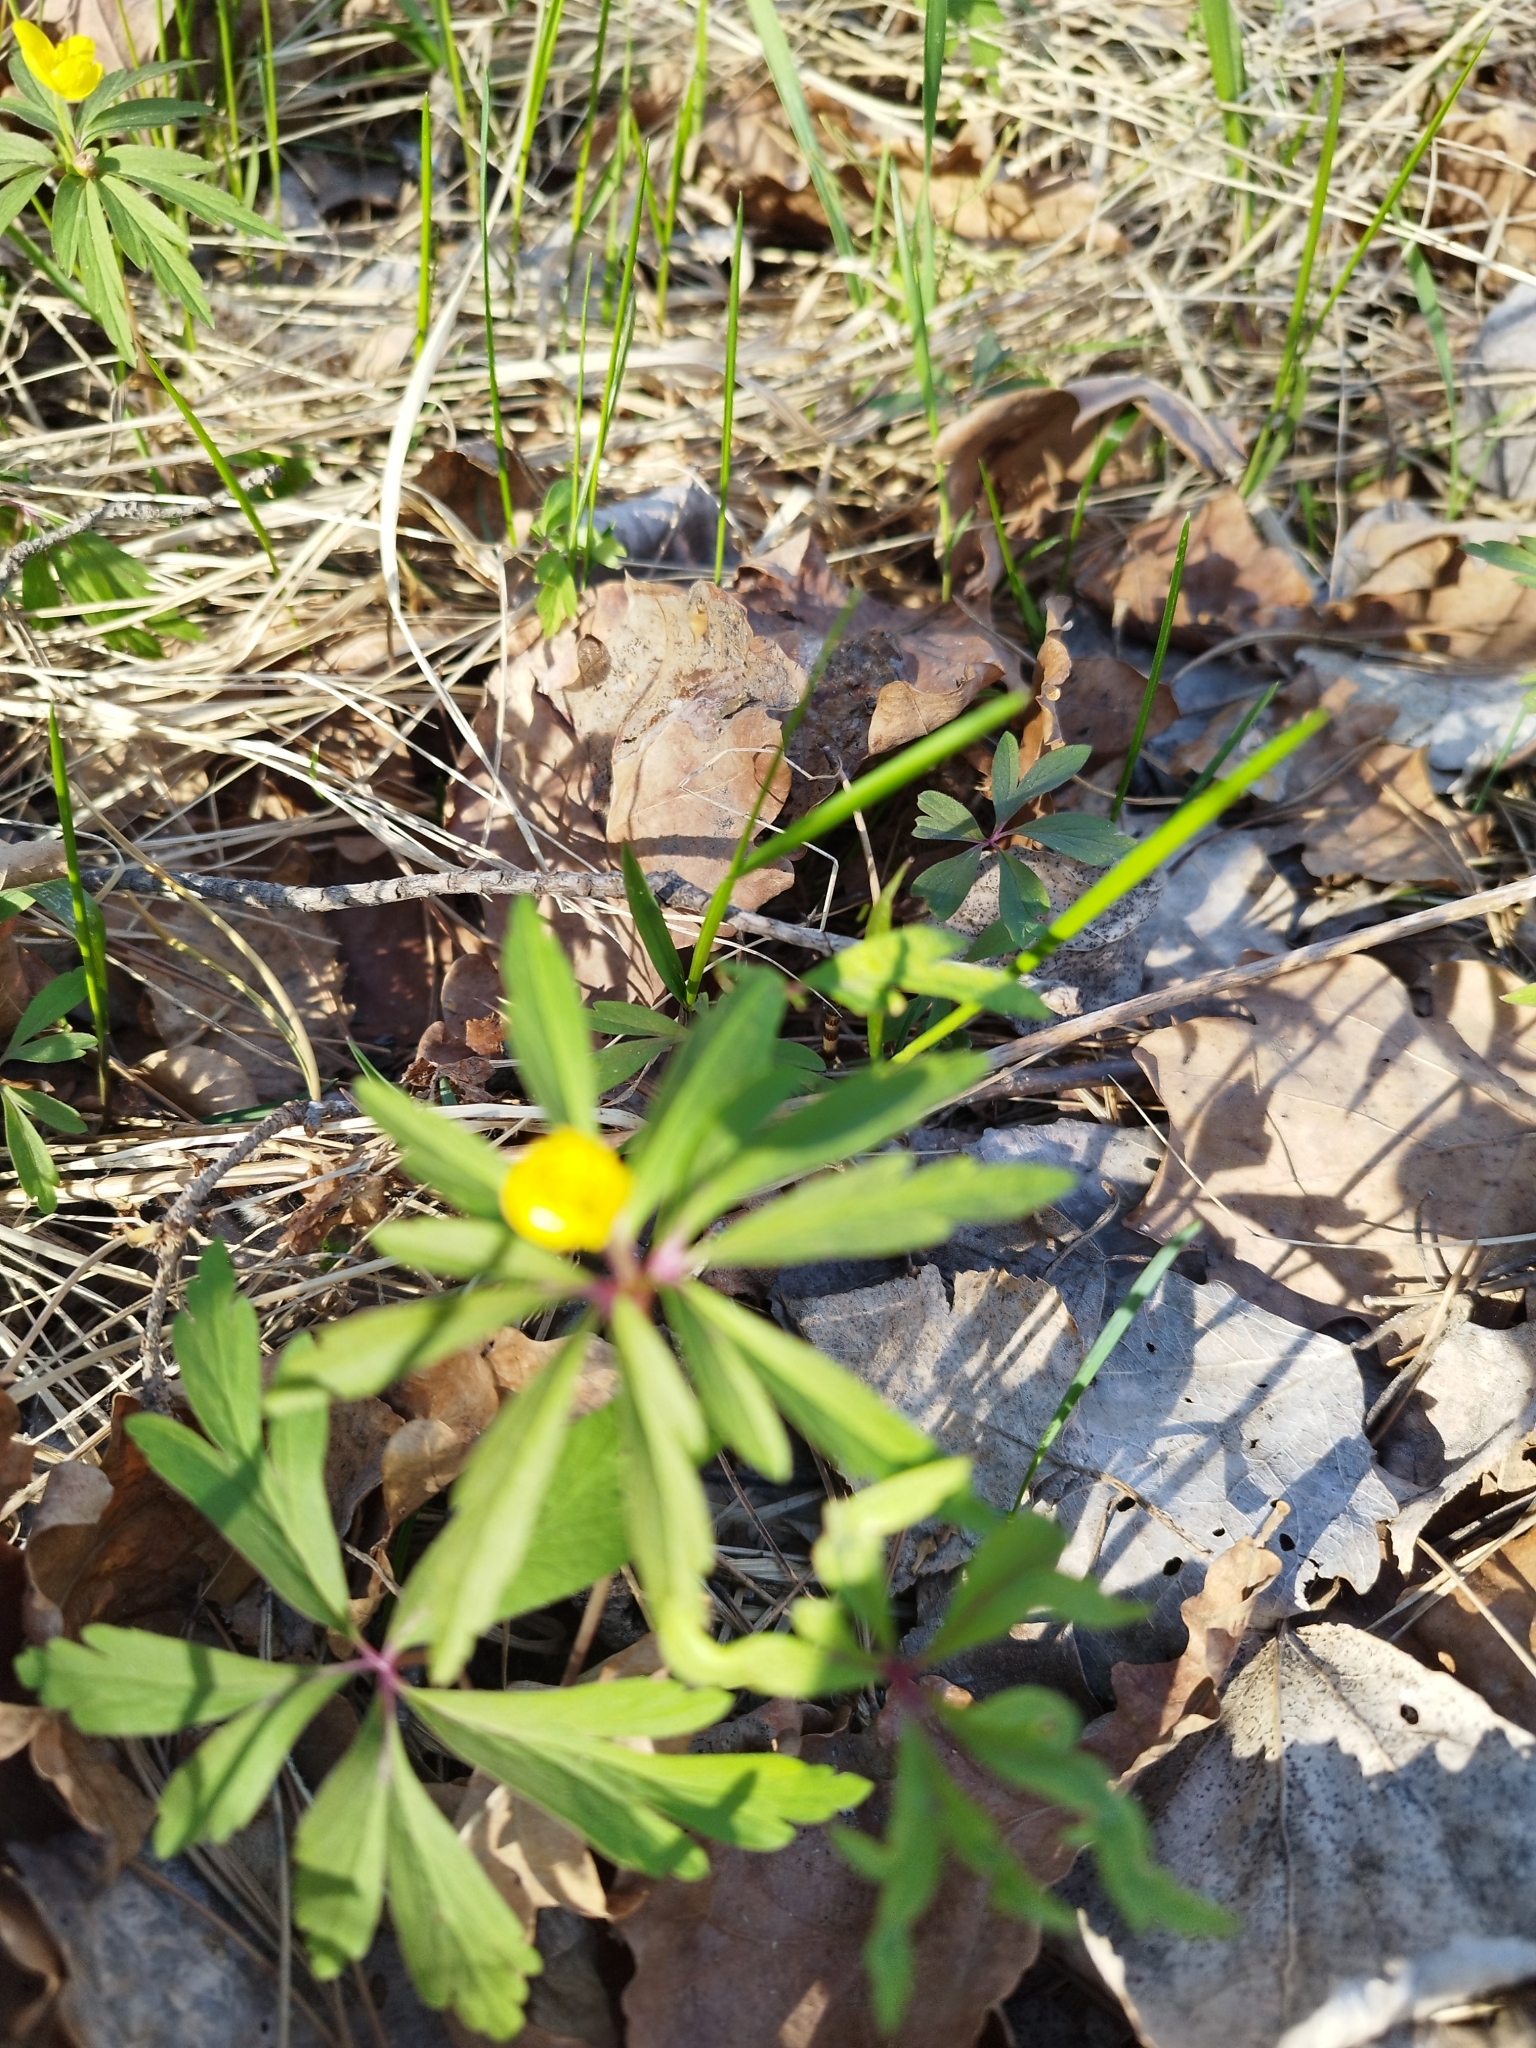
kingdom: Plantae
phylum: Tracheophyta
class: Magnoliopsida
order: Ranunculales
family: Ranunculaceae
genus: Anemone
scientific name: Anemone ranunculoides
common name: Yellow anemone
